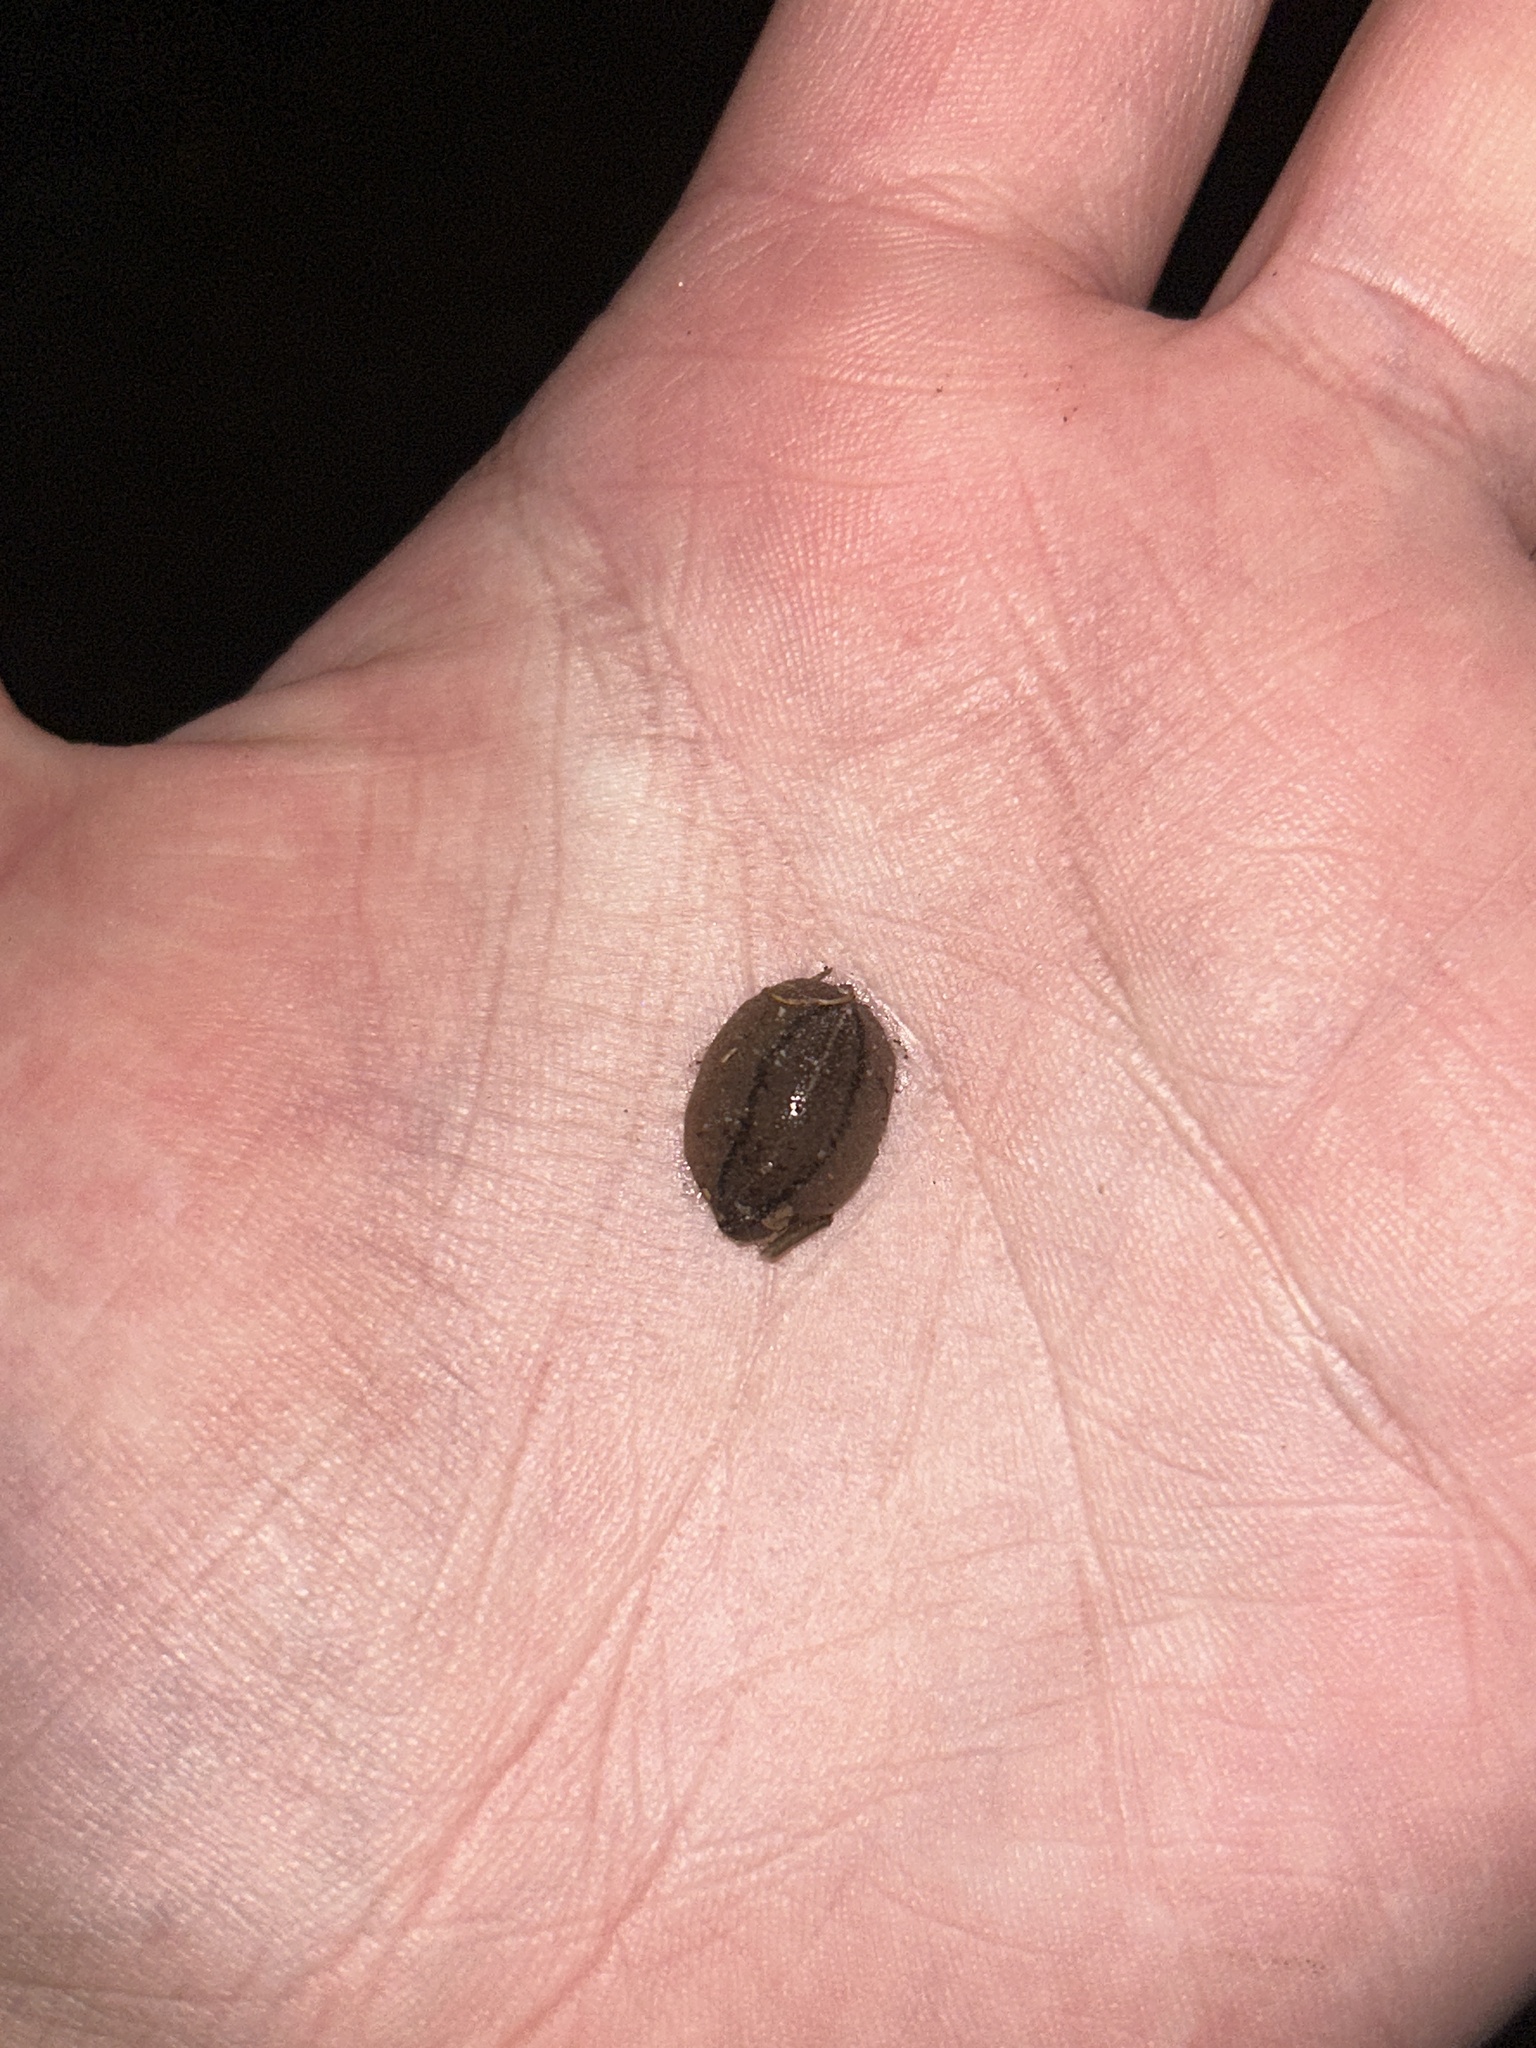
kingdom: Animalia
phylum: Mollusca
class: Gastropoda
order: Systellommatophora
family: Veronicellidae
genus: Leidyula
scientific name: Leidyula floridana
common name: Florida leatherleaf
